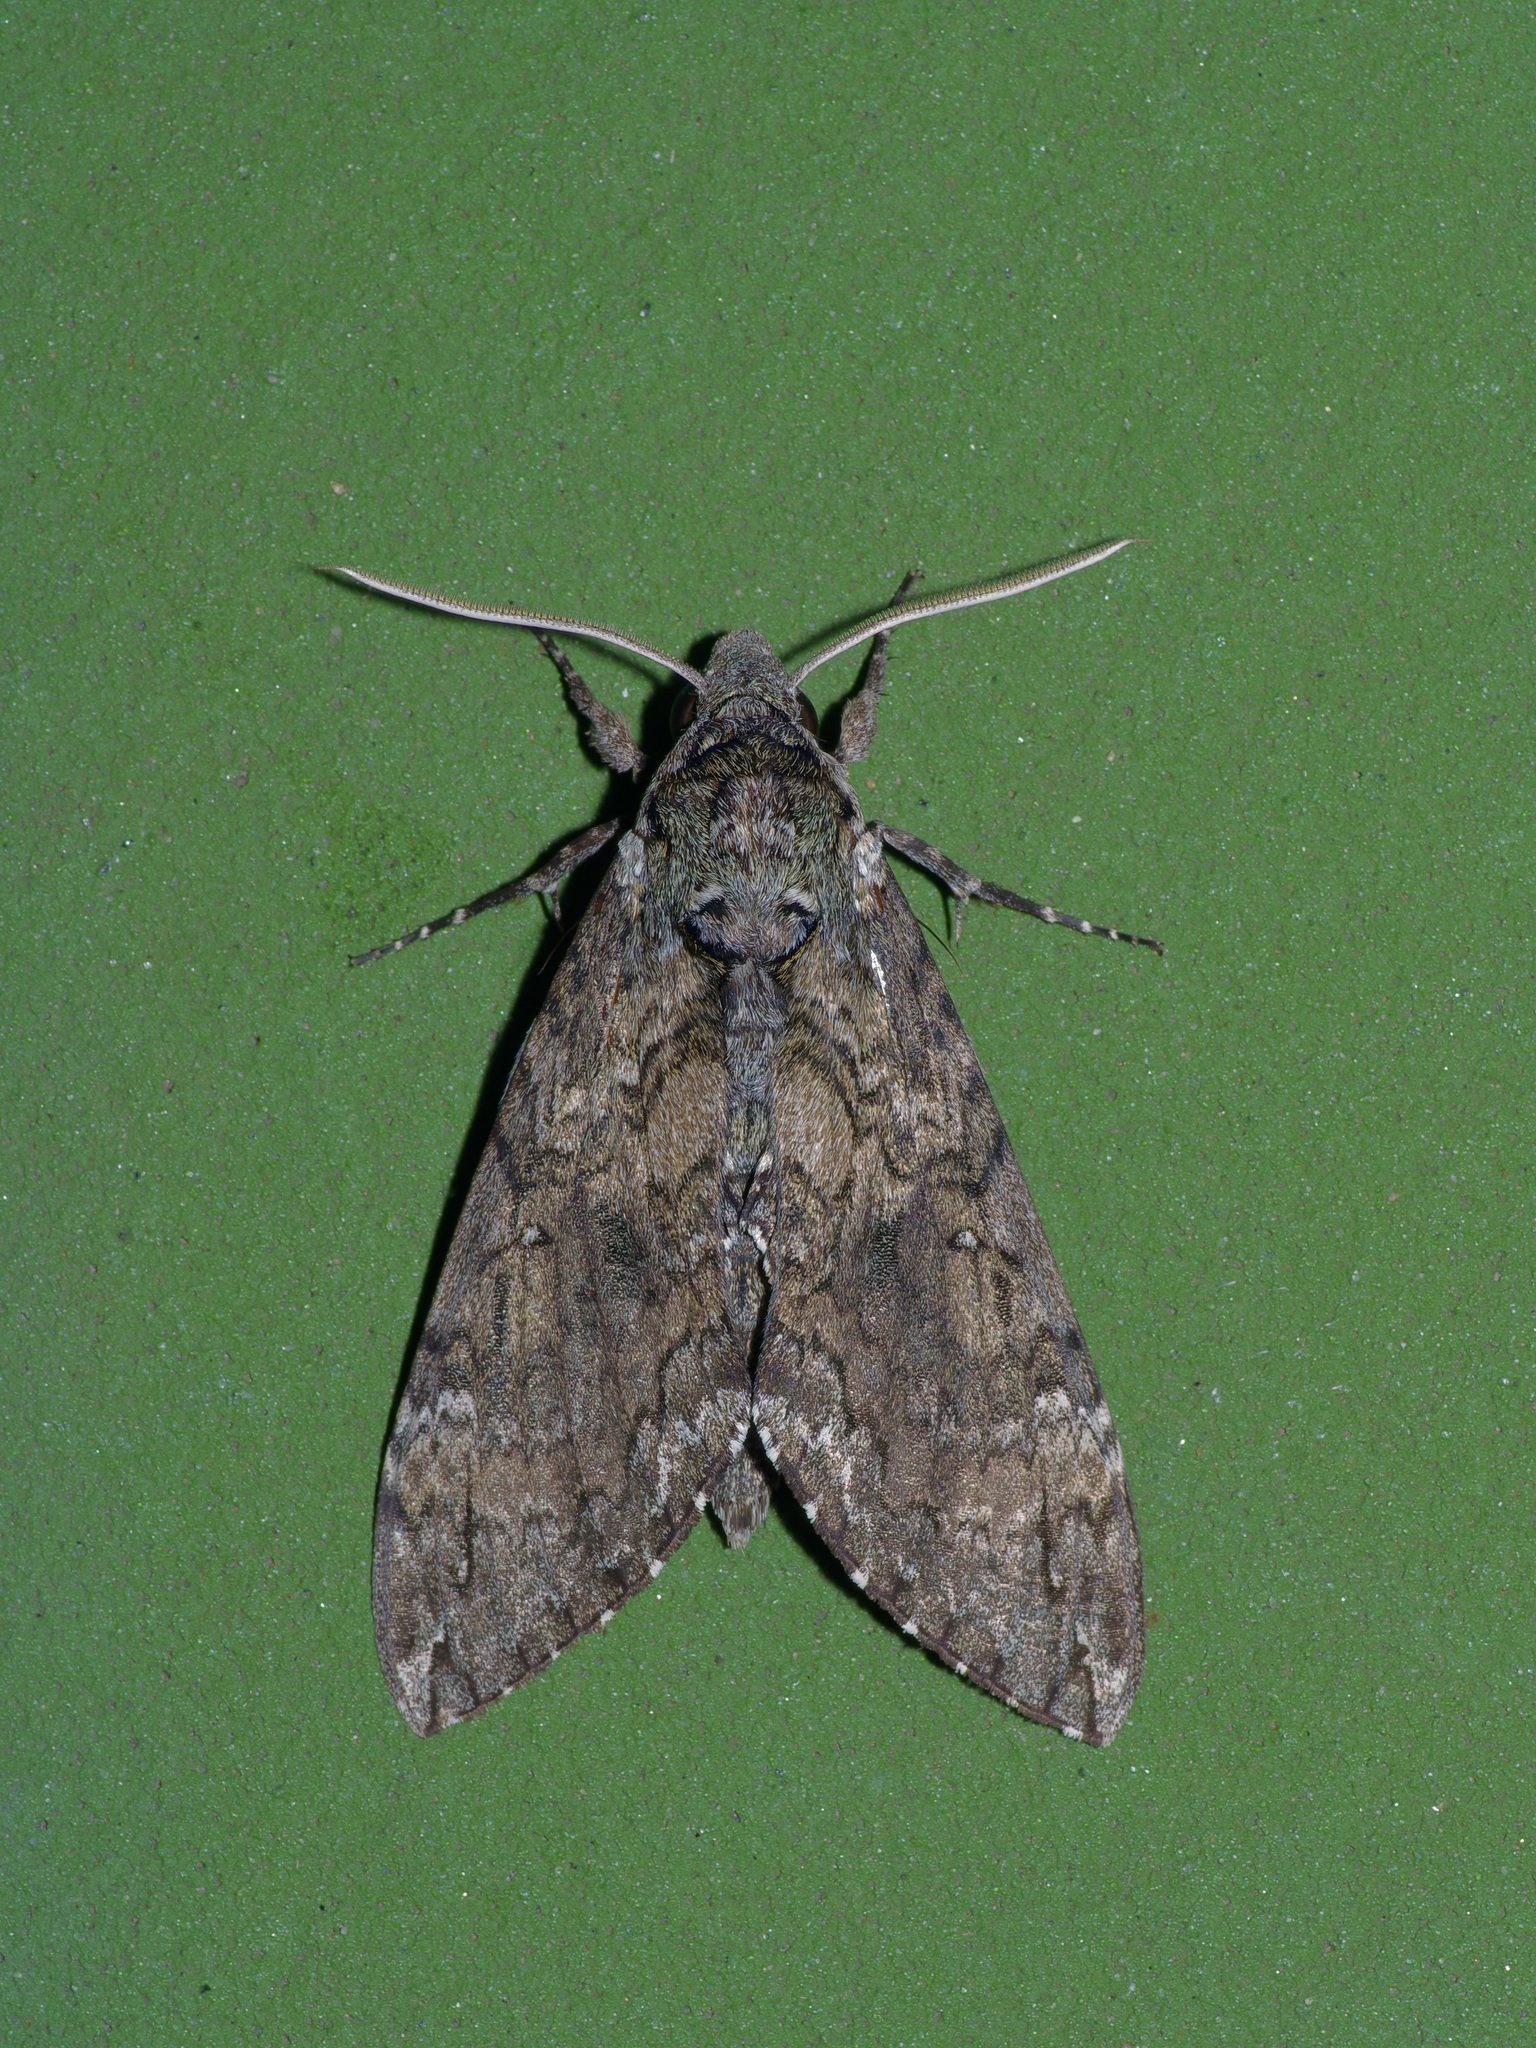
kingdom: Animalia
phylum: Arthropoda
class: Insecta
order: Lepidoptera
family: Sphingidae
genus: Manduca
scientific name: Manduca sexta
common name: Carolina sphinx
